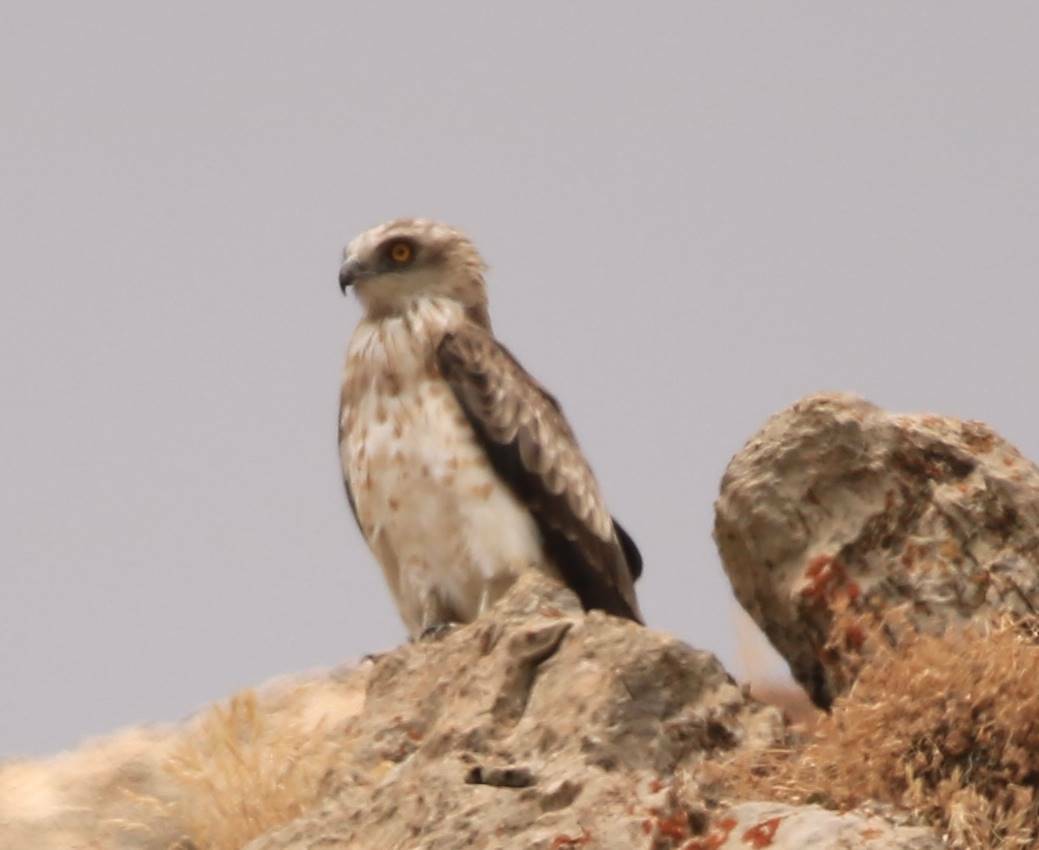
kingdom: Animalia
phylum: Chordata
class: Aves
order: Accipitriformes
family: Accipitridae
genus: Circaetus
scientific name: Circaetus gallicus
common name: Short-toed snake eagle
